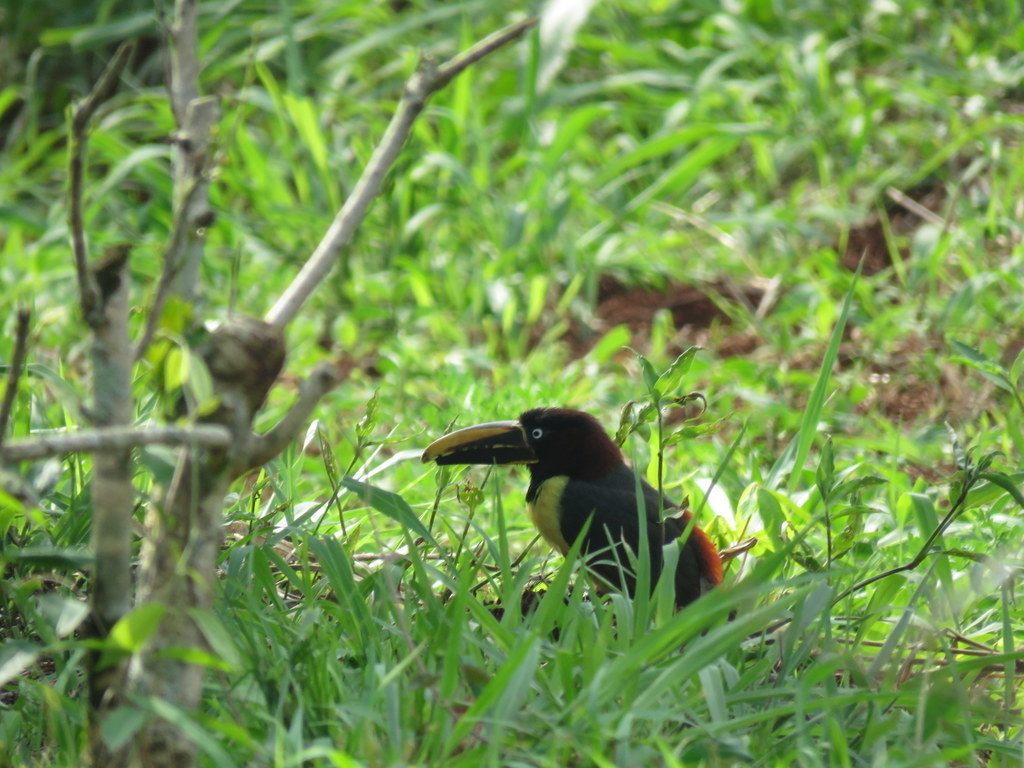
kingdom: Animalia
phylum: Chordata
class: Aves
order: Piciformes
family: Ramphastidae
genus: Pteroglossus
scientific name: Pteroglossus castanotis
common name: Chestnut-eared aracari
